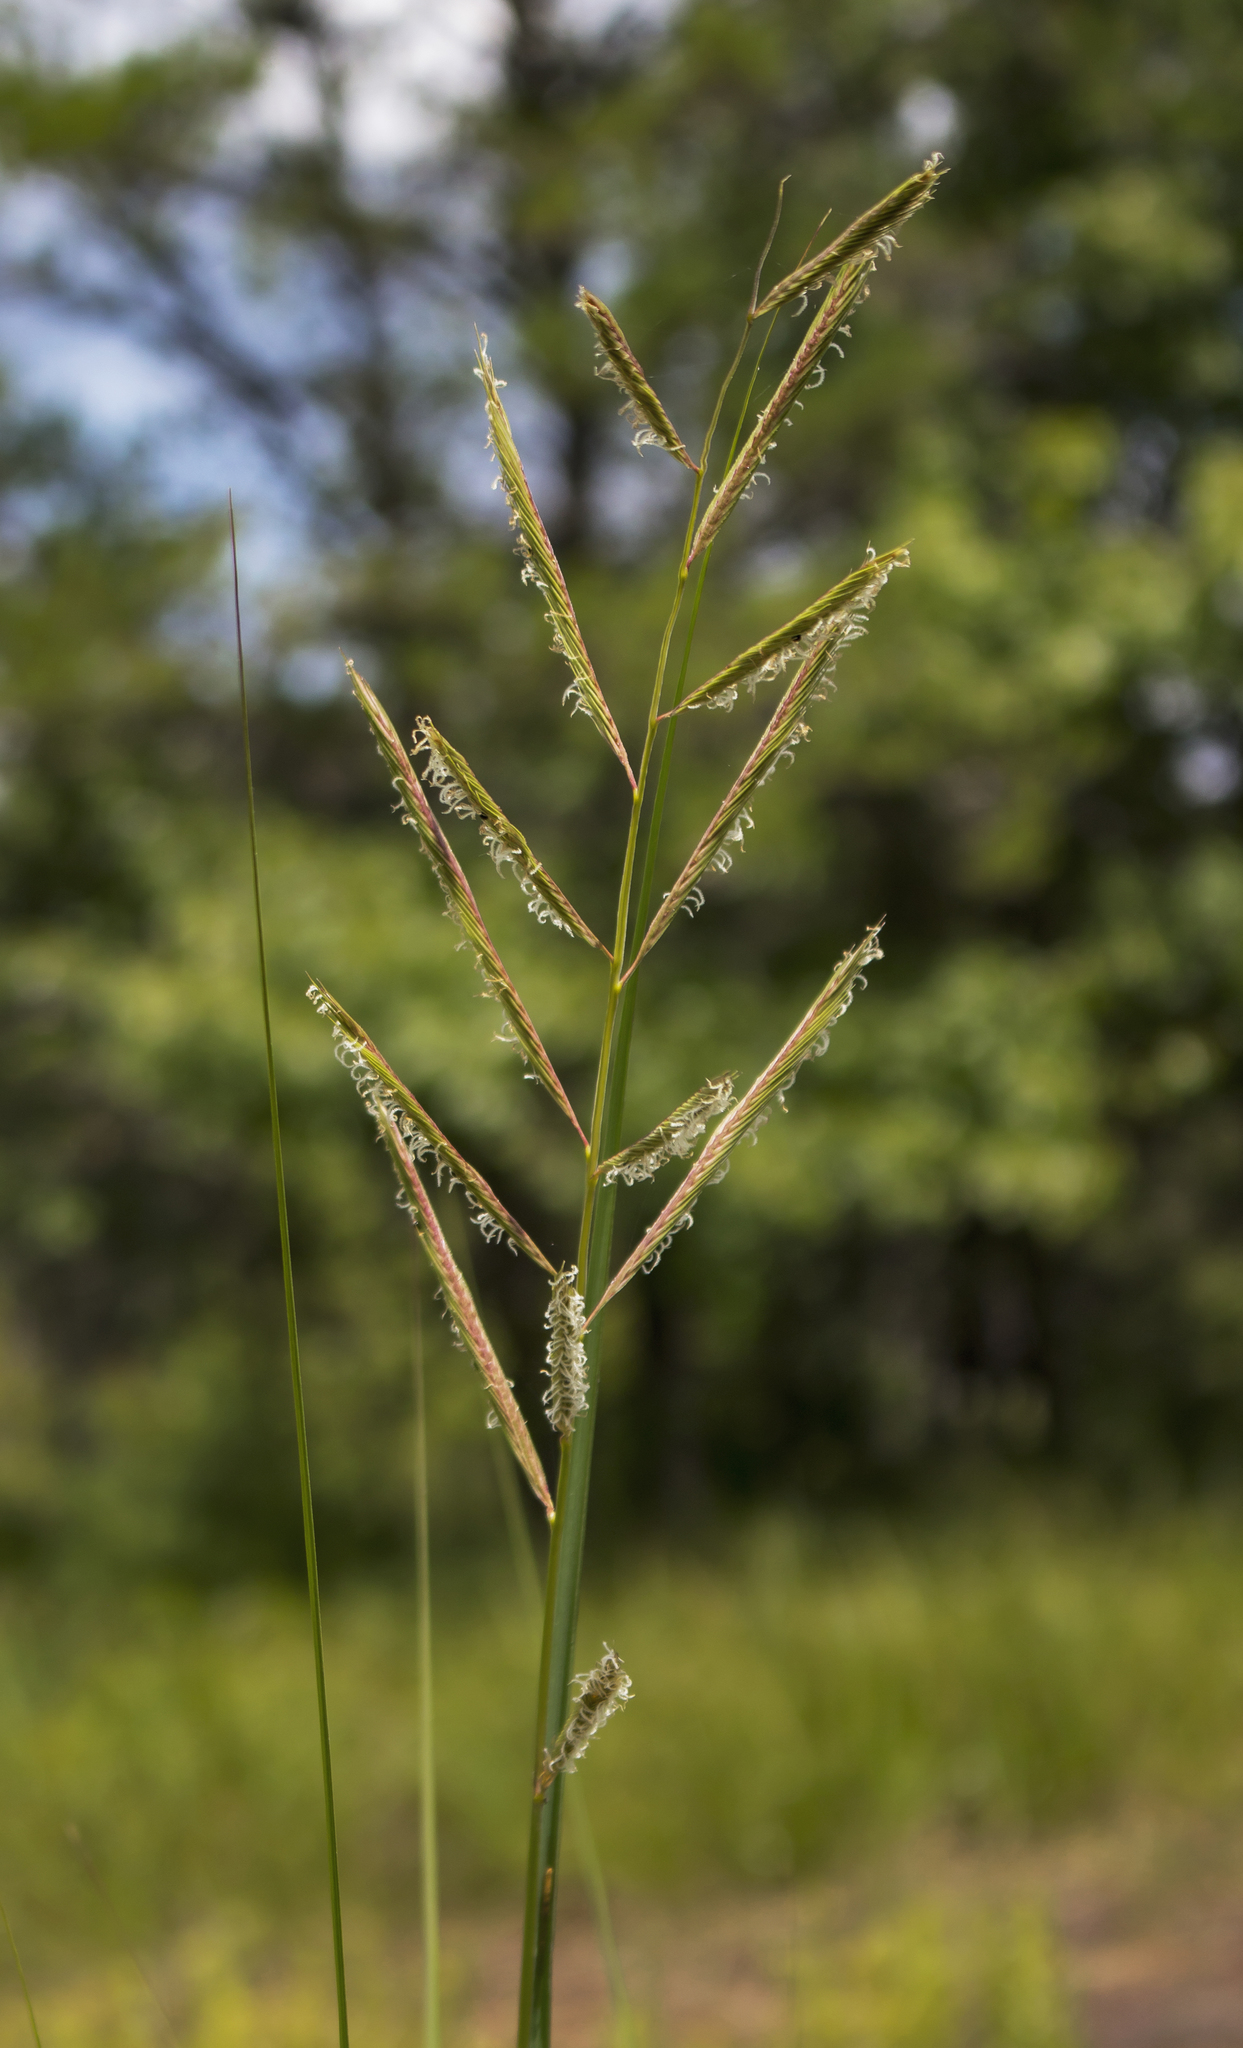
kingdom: Plantae
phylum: Tracheophyta
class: Liliopsida
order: Poales
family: Poaceae
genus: Sporobolus
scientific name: Sporobolus michauxianus
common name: Freshwater cordgrass
